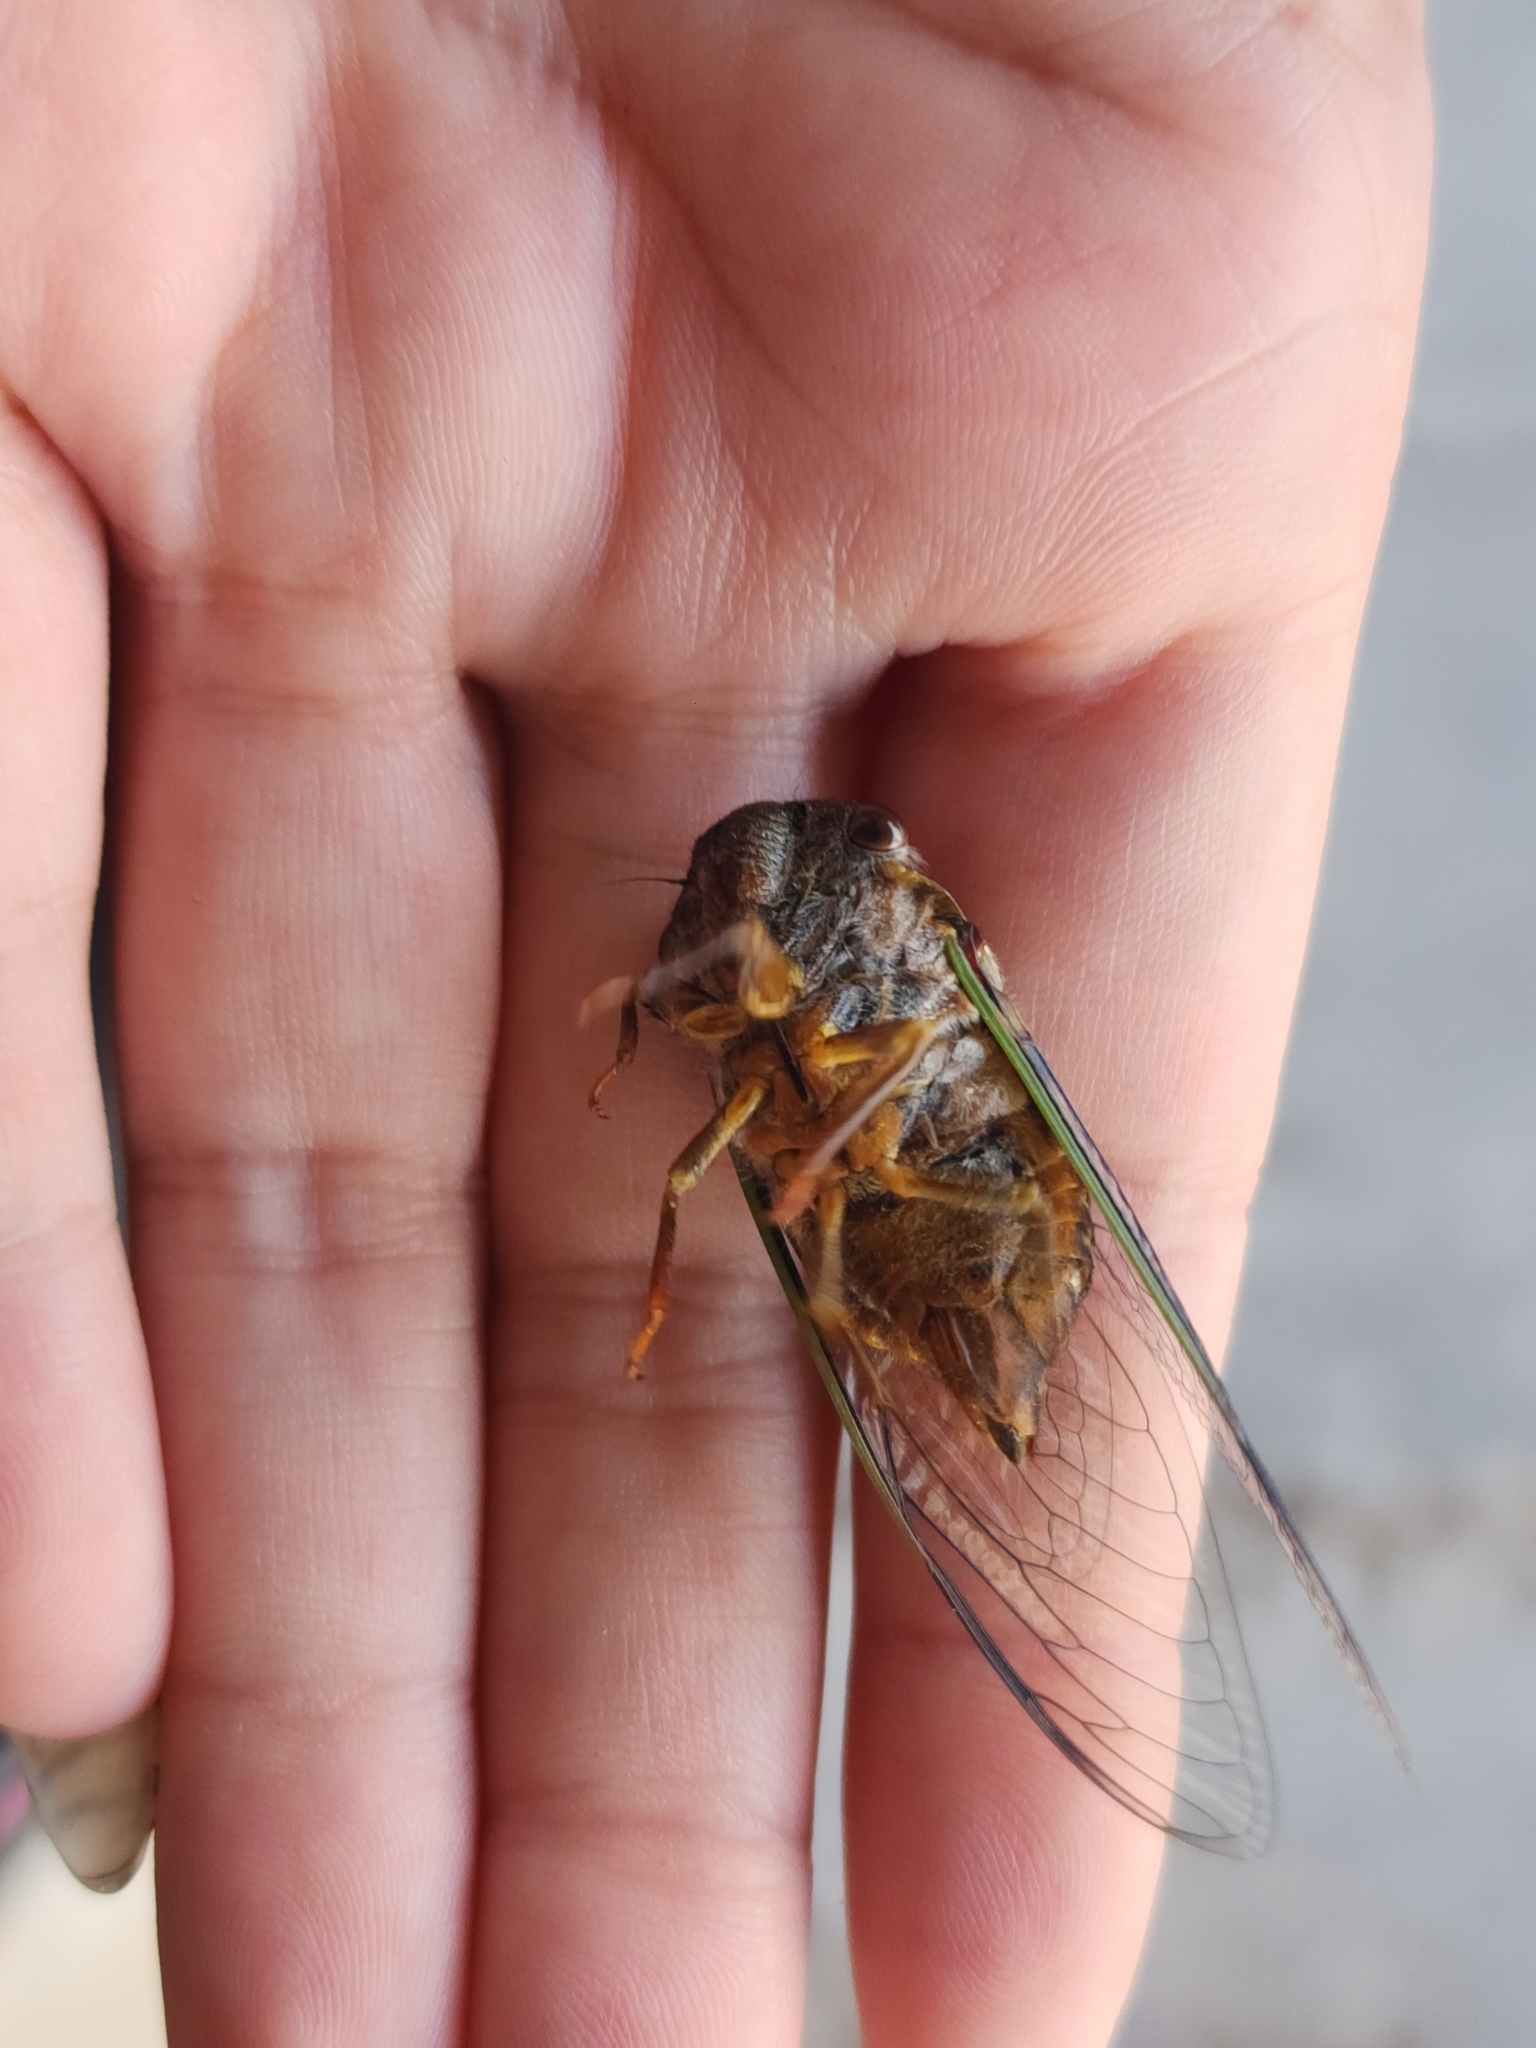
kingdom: Animalia
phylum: Arthropoda
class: Insecta
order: Hemiptera
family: Cicadidae
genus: Fidicinoides
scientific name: Fidicinoides ferruginosa
